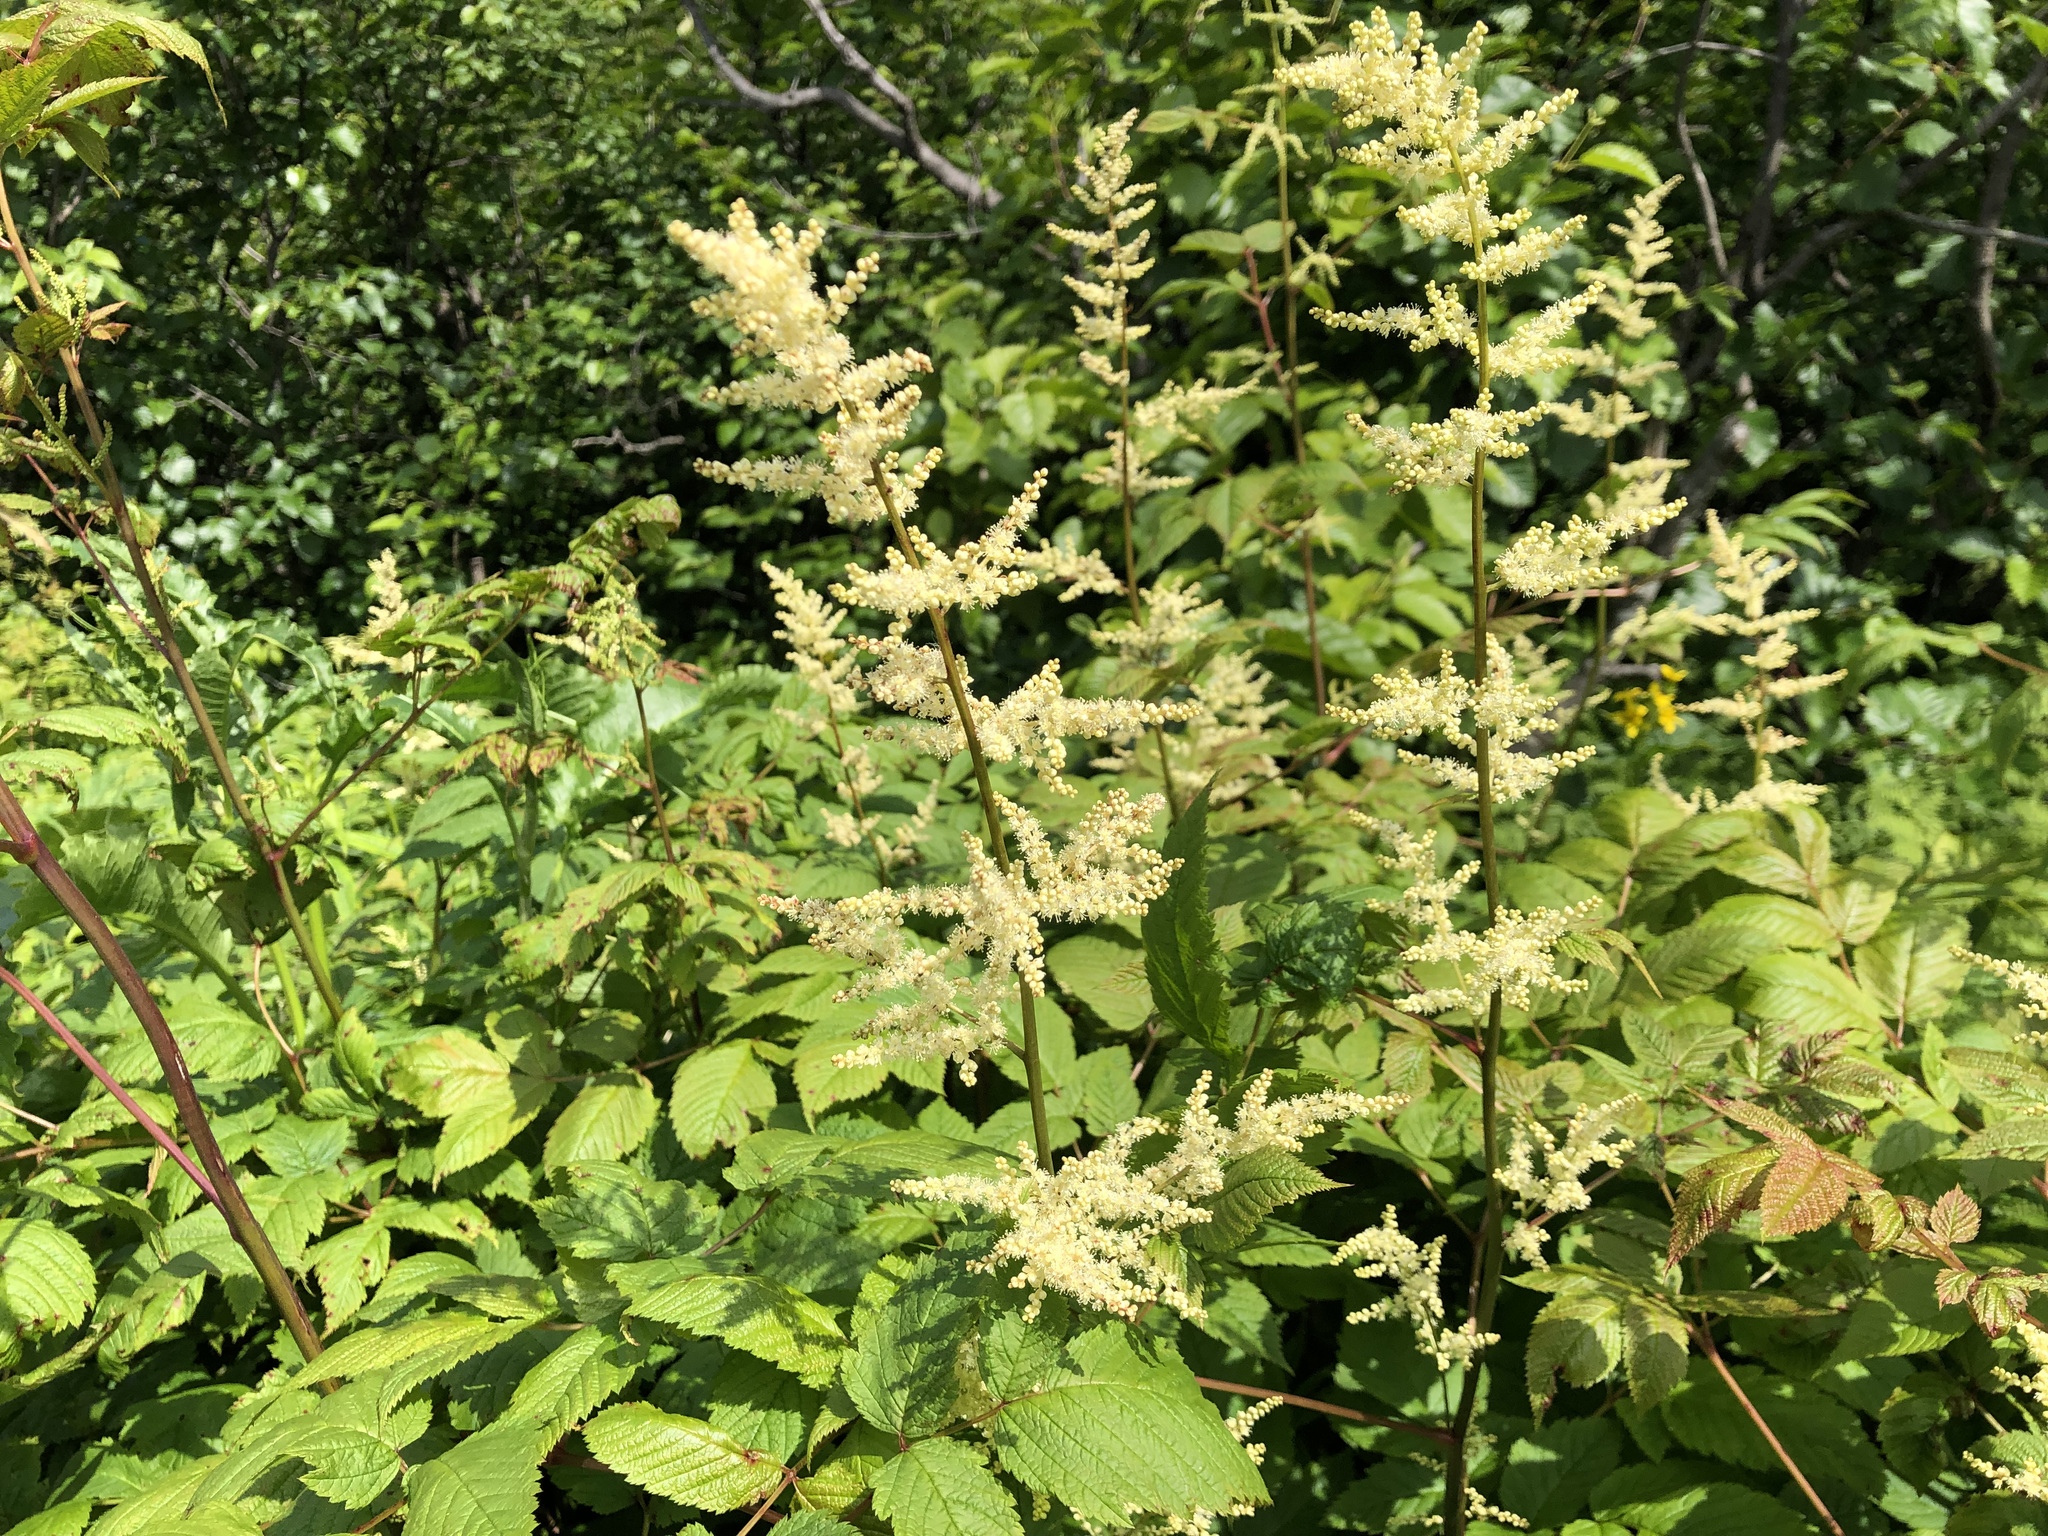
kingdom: Plantae
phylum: Tracheophyta
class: Magnoliopsida
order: Rosales
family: Rosaceae
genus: Aruncus
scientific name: Aruncus dioicus
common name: Buck's-beard
